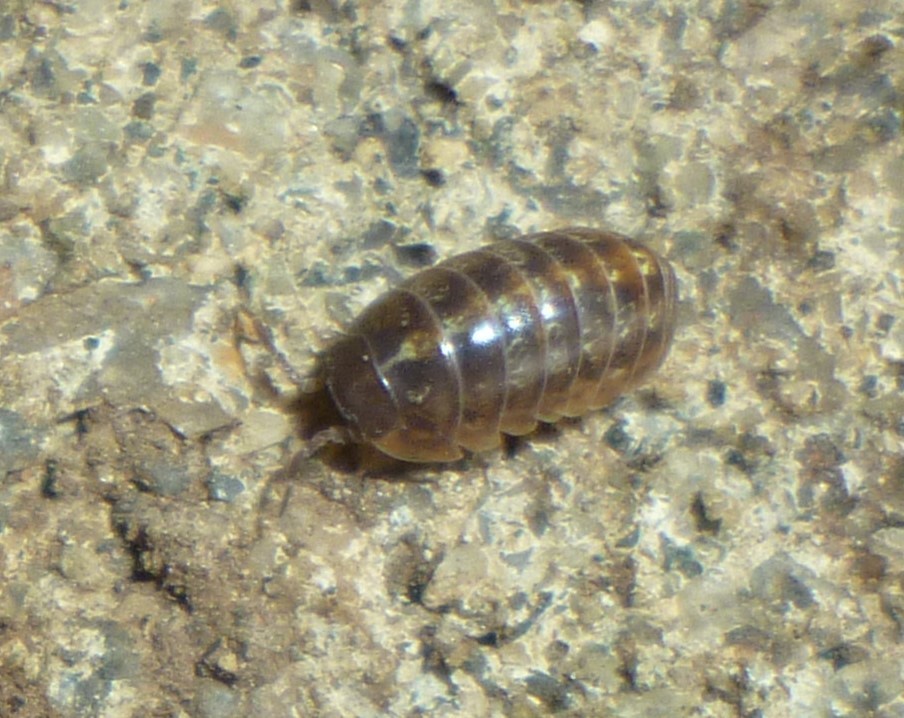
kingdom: Animalia
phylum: Arthropoda
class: Malacostraca
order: Isopoda
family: Armadillidiidae
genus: Armadillidium
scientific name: Armadillidium vulgare
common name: Common pill woodlouse
